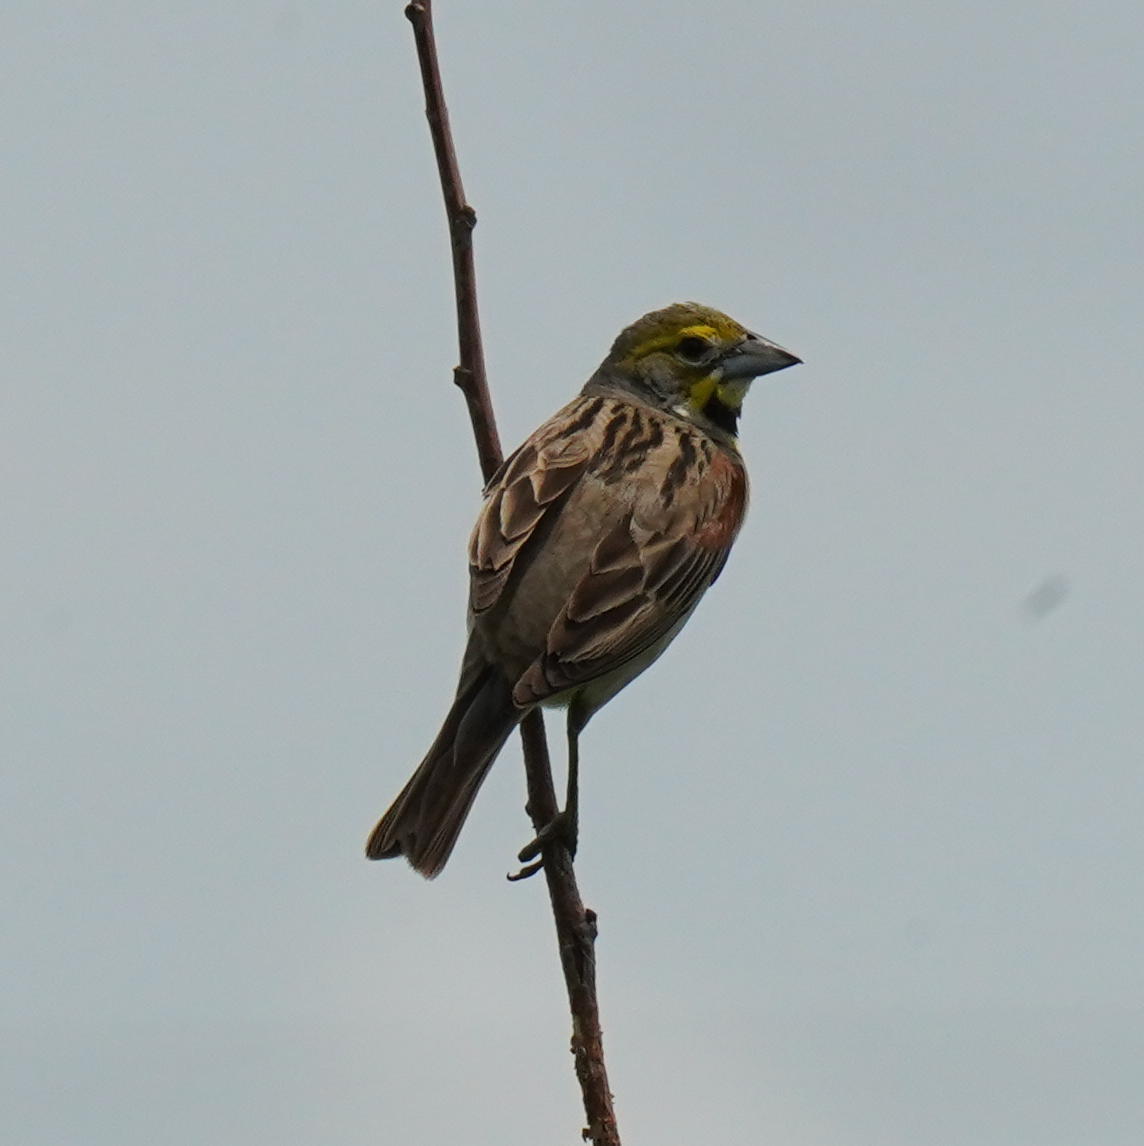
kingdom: Animalia
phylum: Chordata
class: Aves
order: Passeriformes
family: Cardinalidae
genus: Spiza
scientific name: Spiza americana
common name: Dickcissel
